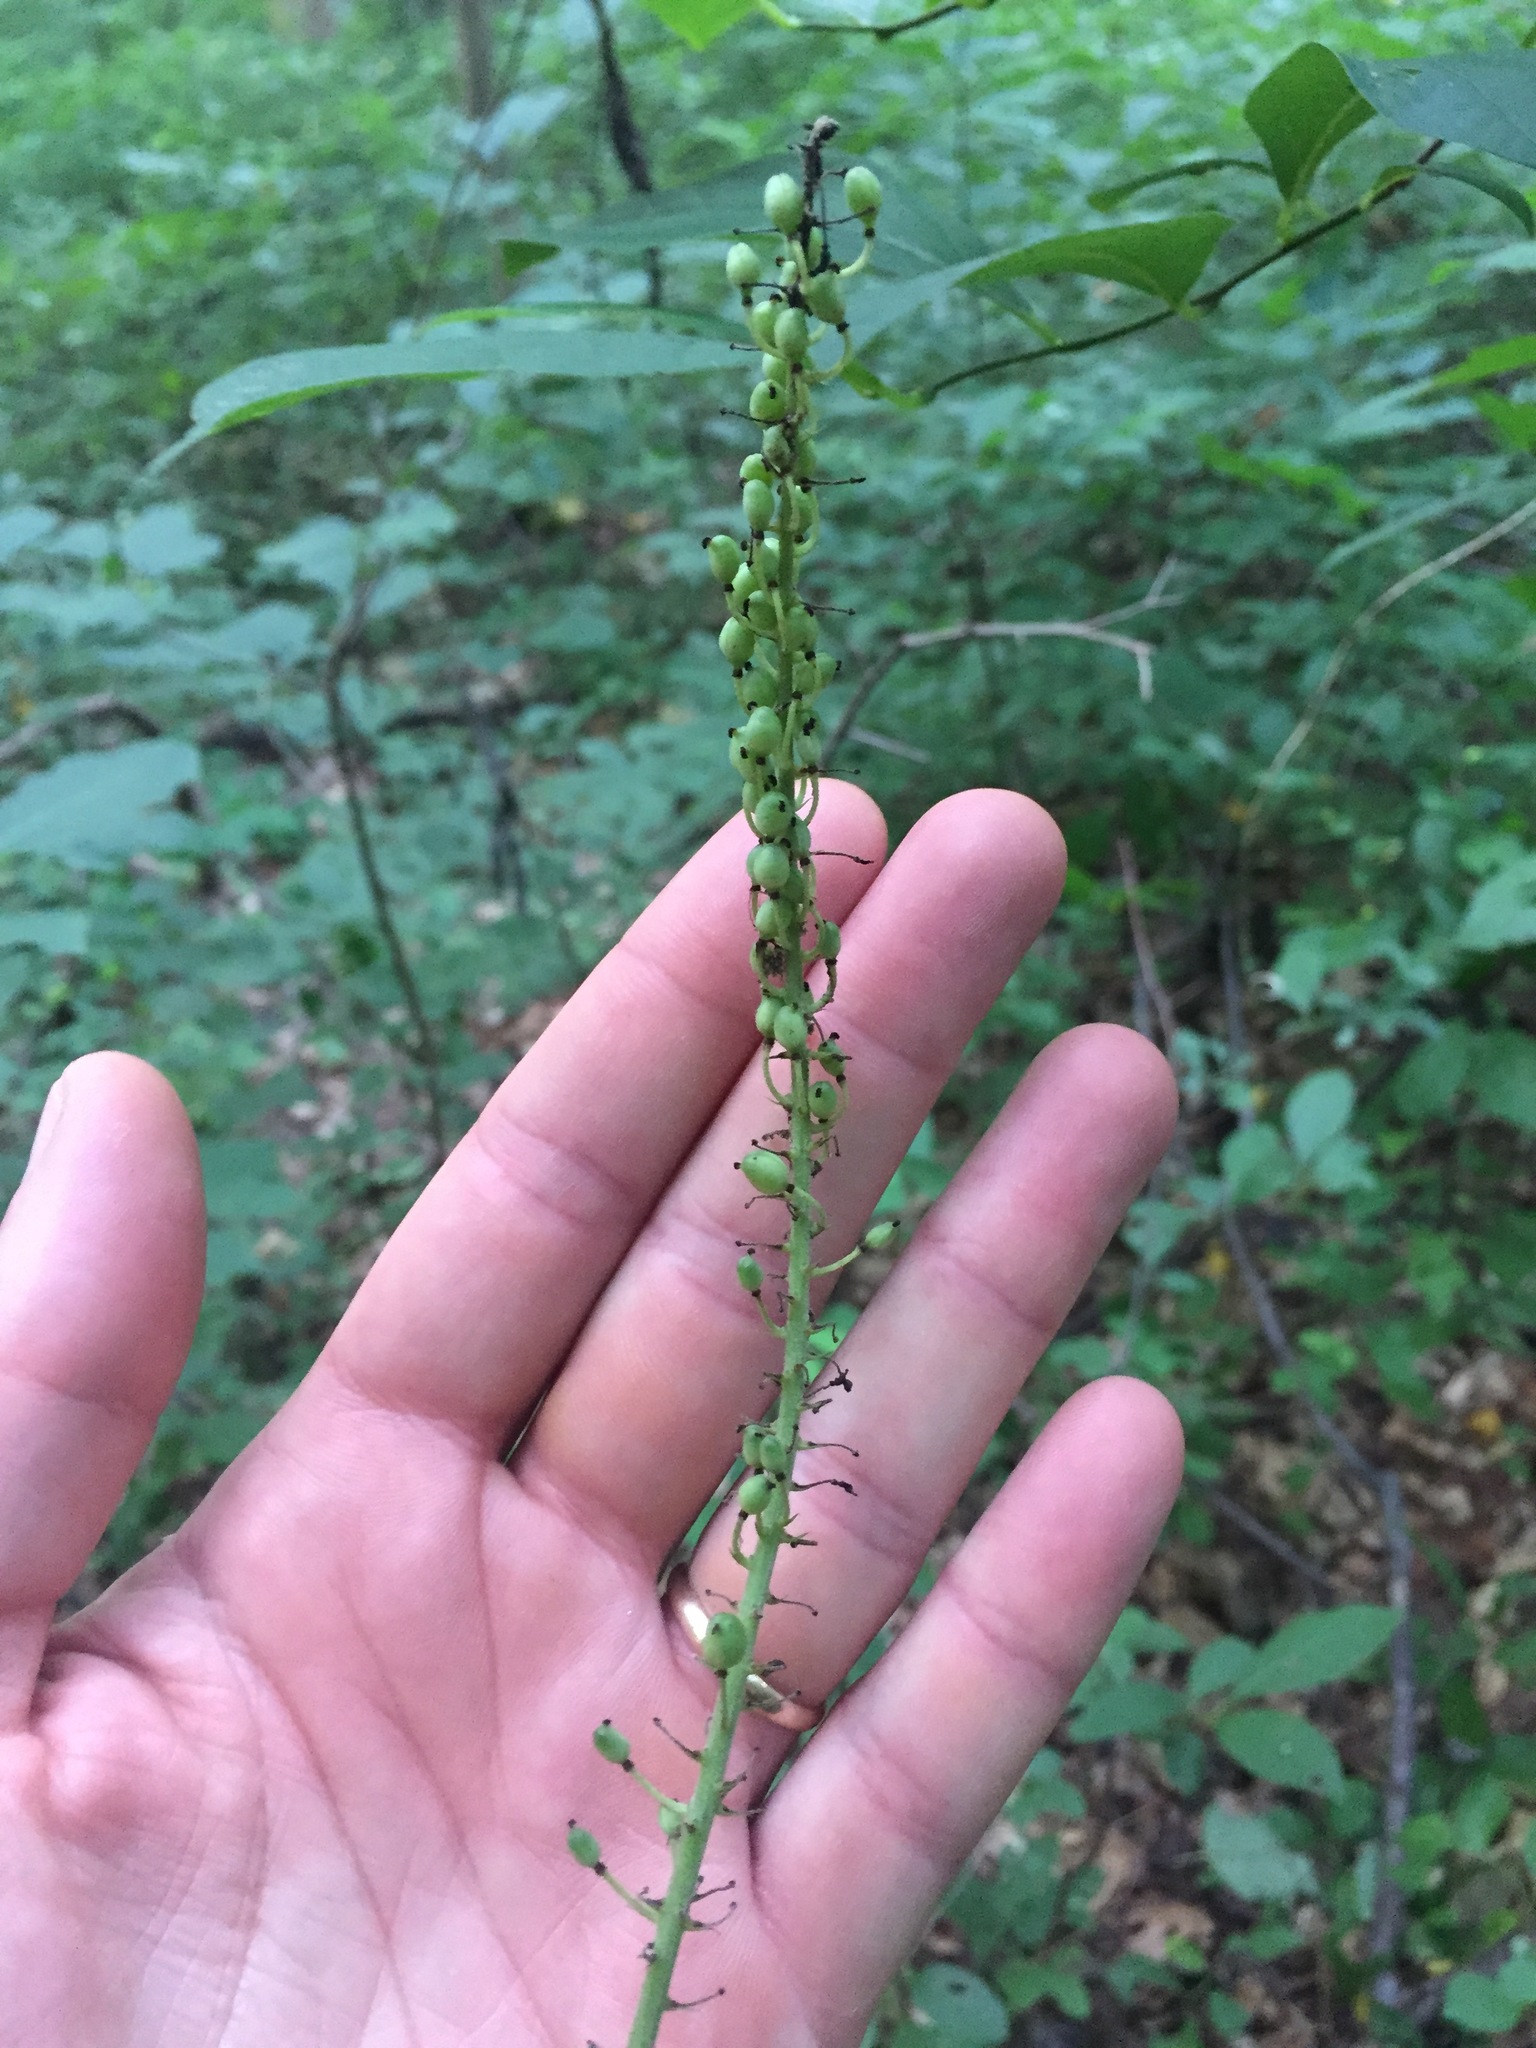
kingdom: Plantae
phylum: Tracheophyta
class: Magnoliopsida
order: Ranunculales
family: Ranunculaceae
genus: Actaea
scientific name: Actaea racemosa
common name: Black cohosh
